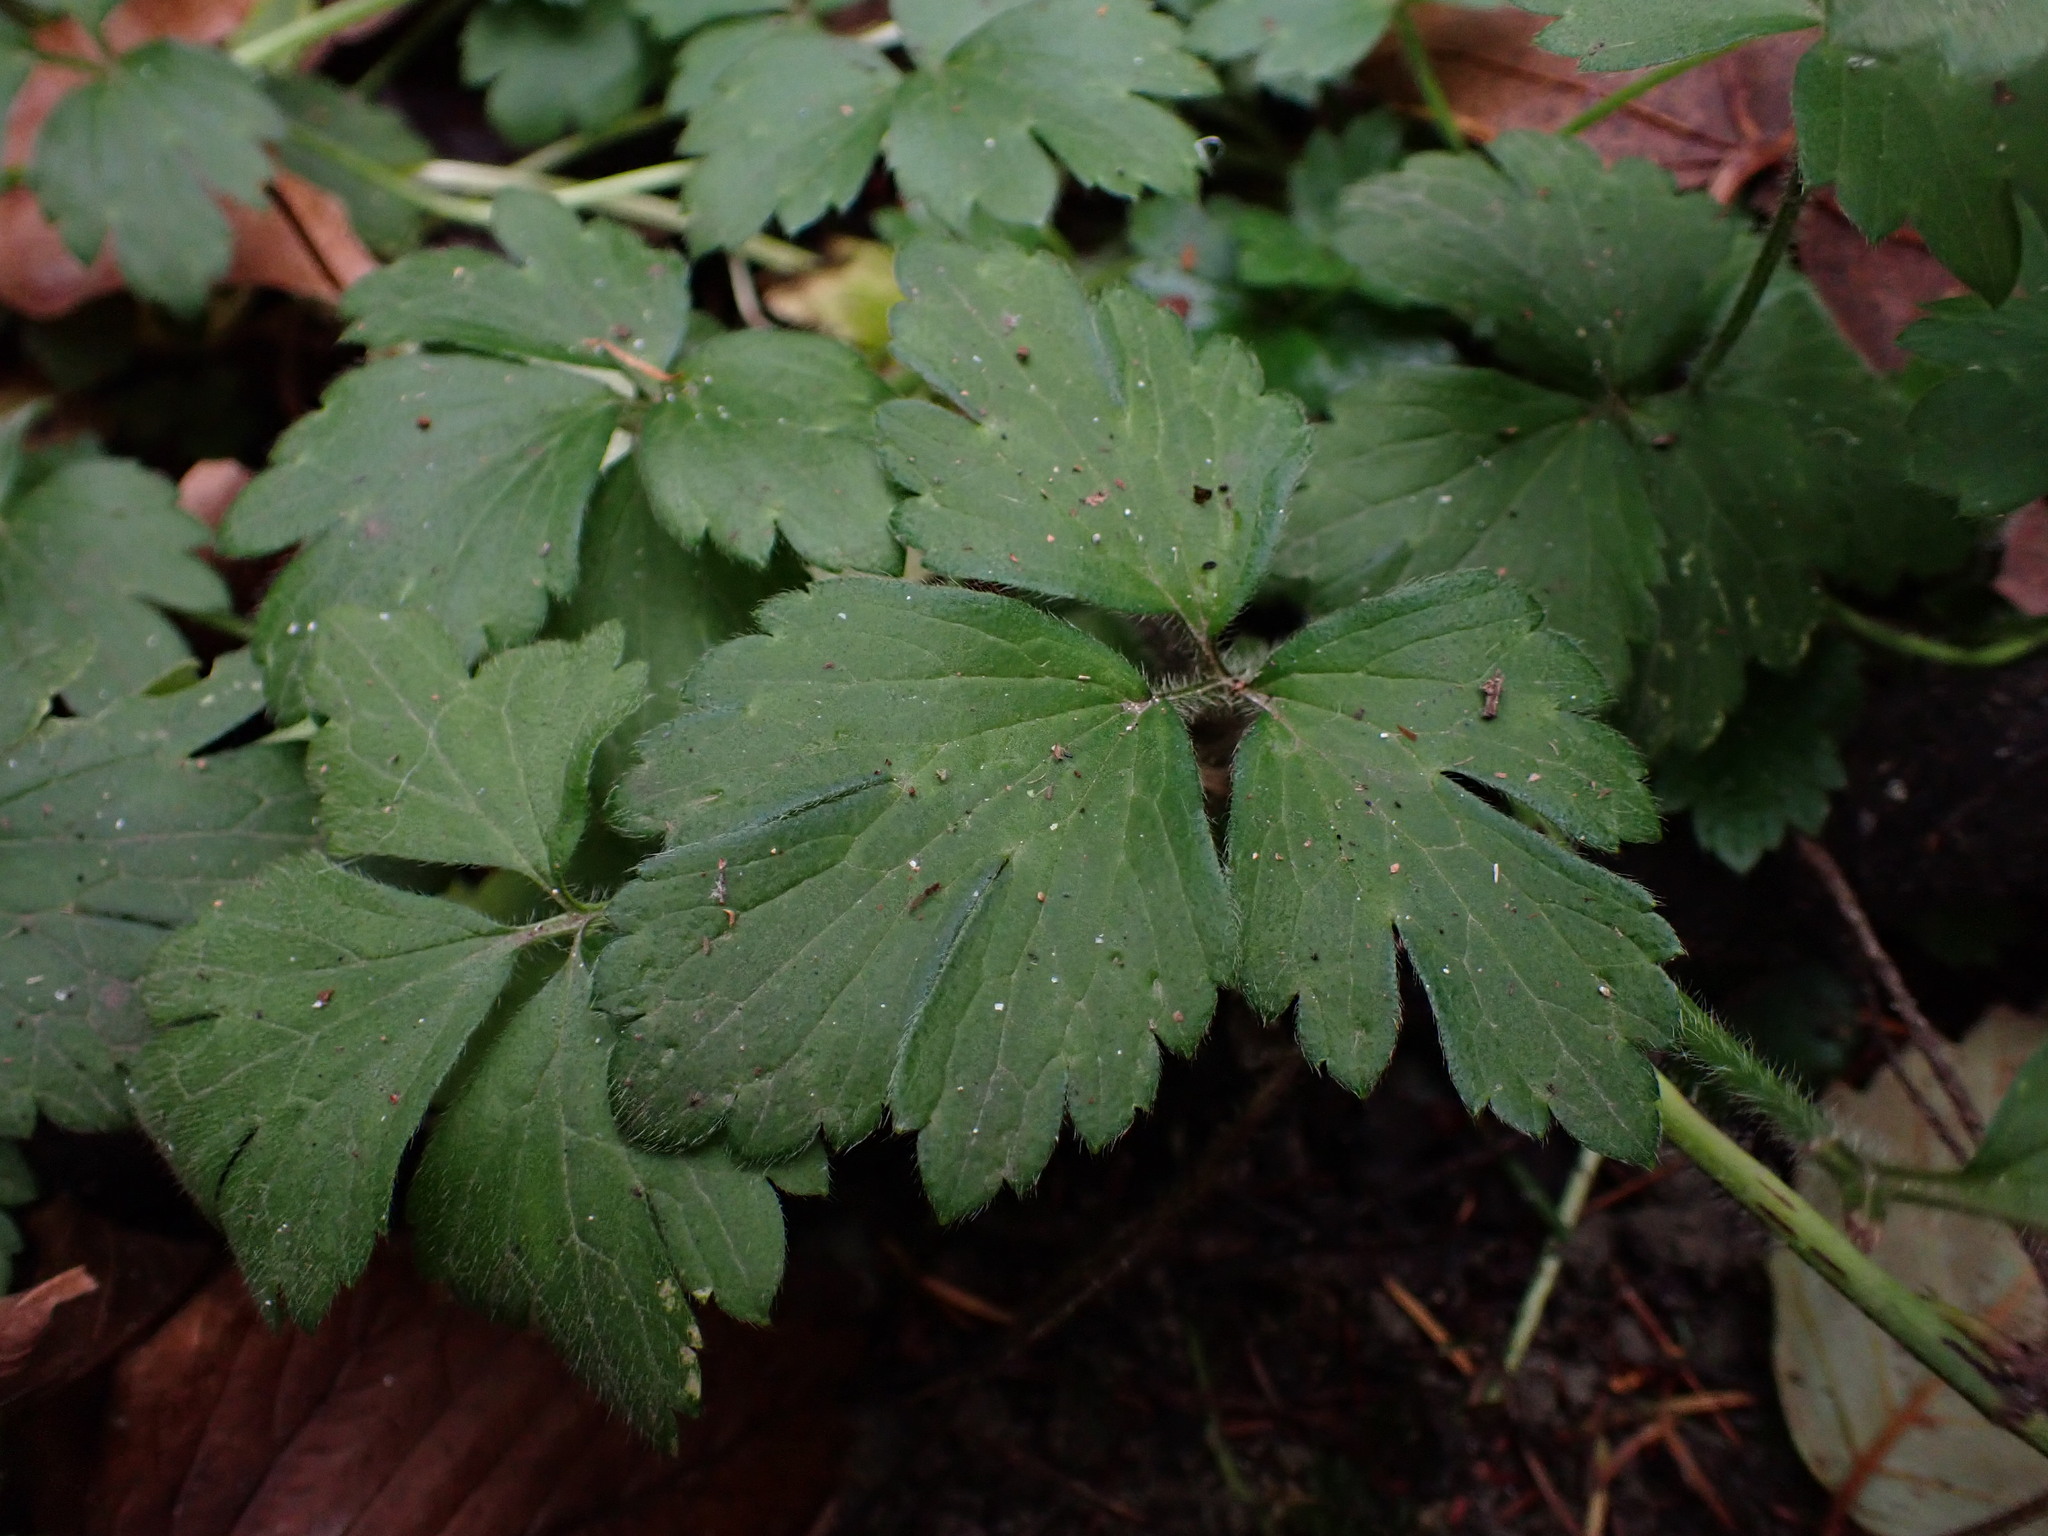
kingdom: Plantae
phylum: Tracheophyta
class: Magnoliopsida
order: Ranunculales
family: Ranunculaceae
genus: Ranunculus
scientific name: Ranunculus repens
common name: Creeping buttercup
